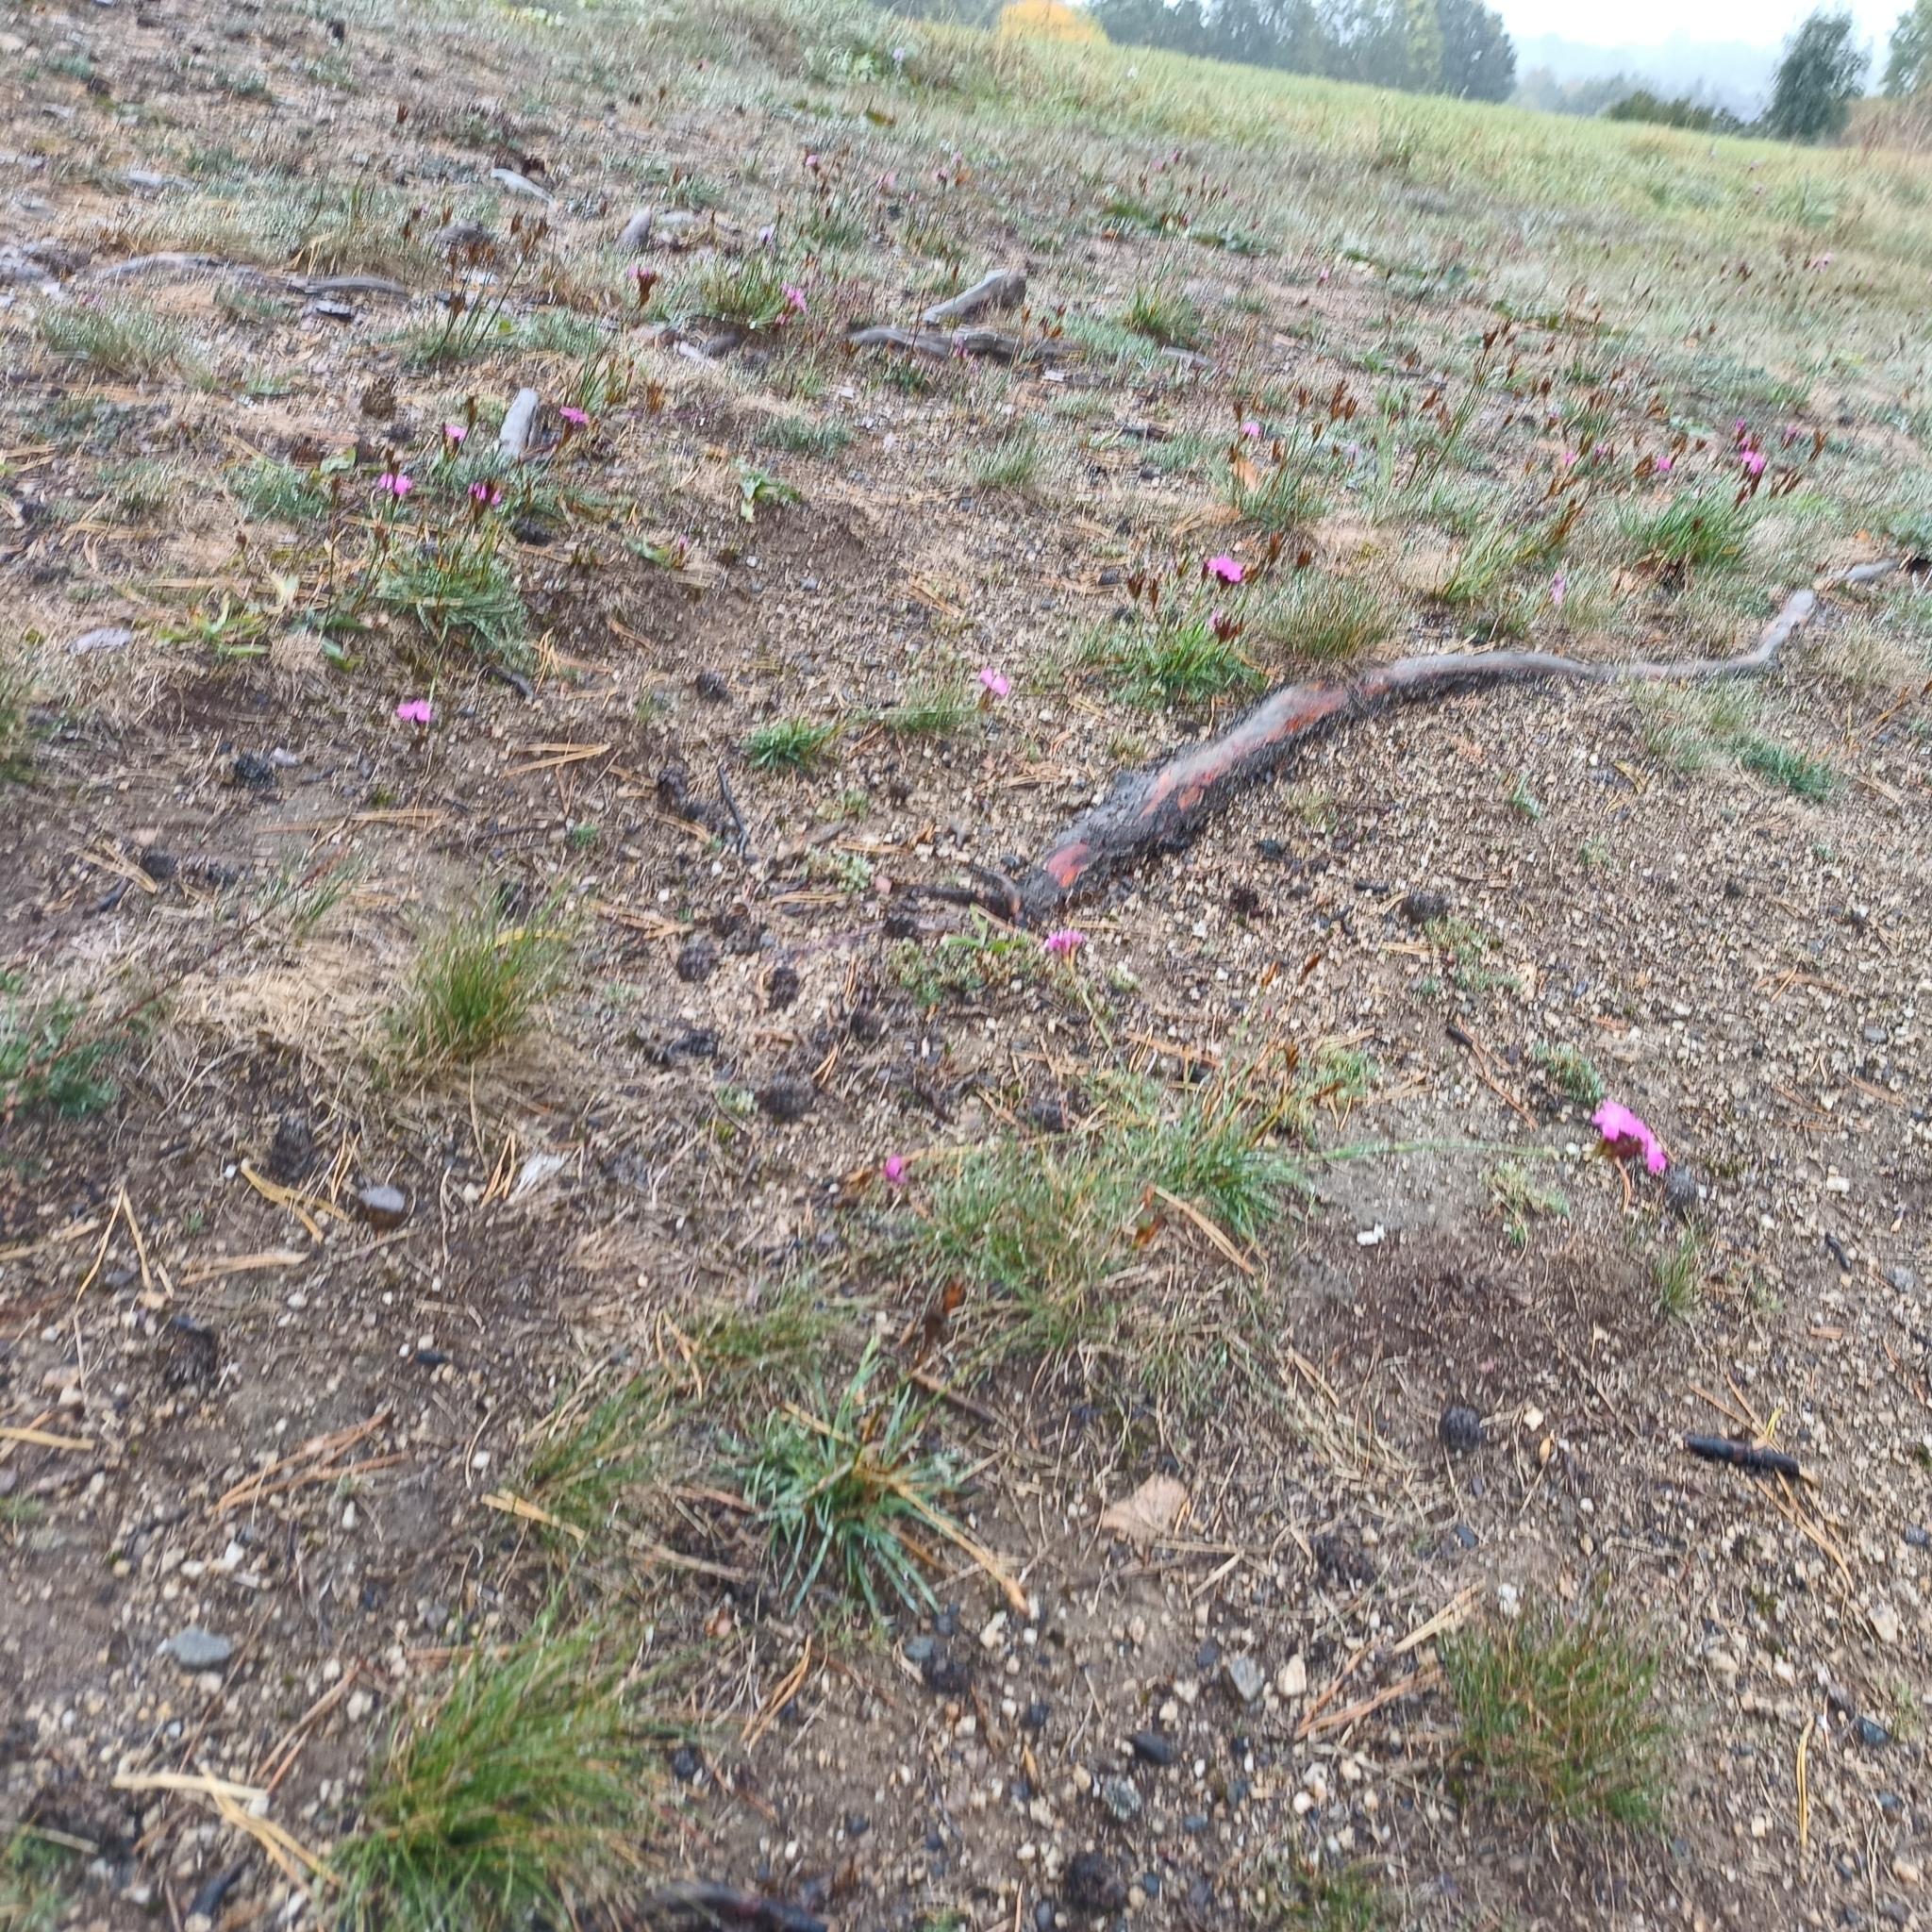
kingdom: Plantae
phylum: Tracheophyta
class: Magnoliopsida
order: Caryophyllales
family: Caryophyllaceae
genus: Dianthus
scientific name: Dianthus carthusianorum
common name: Carthusian pink
